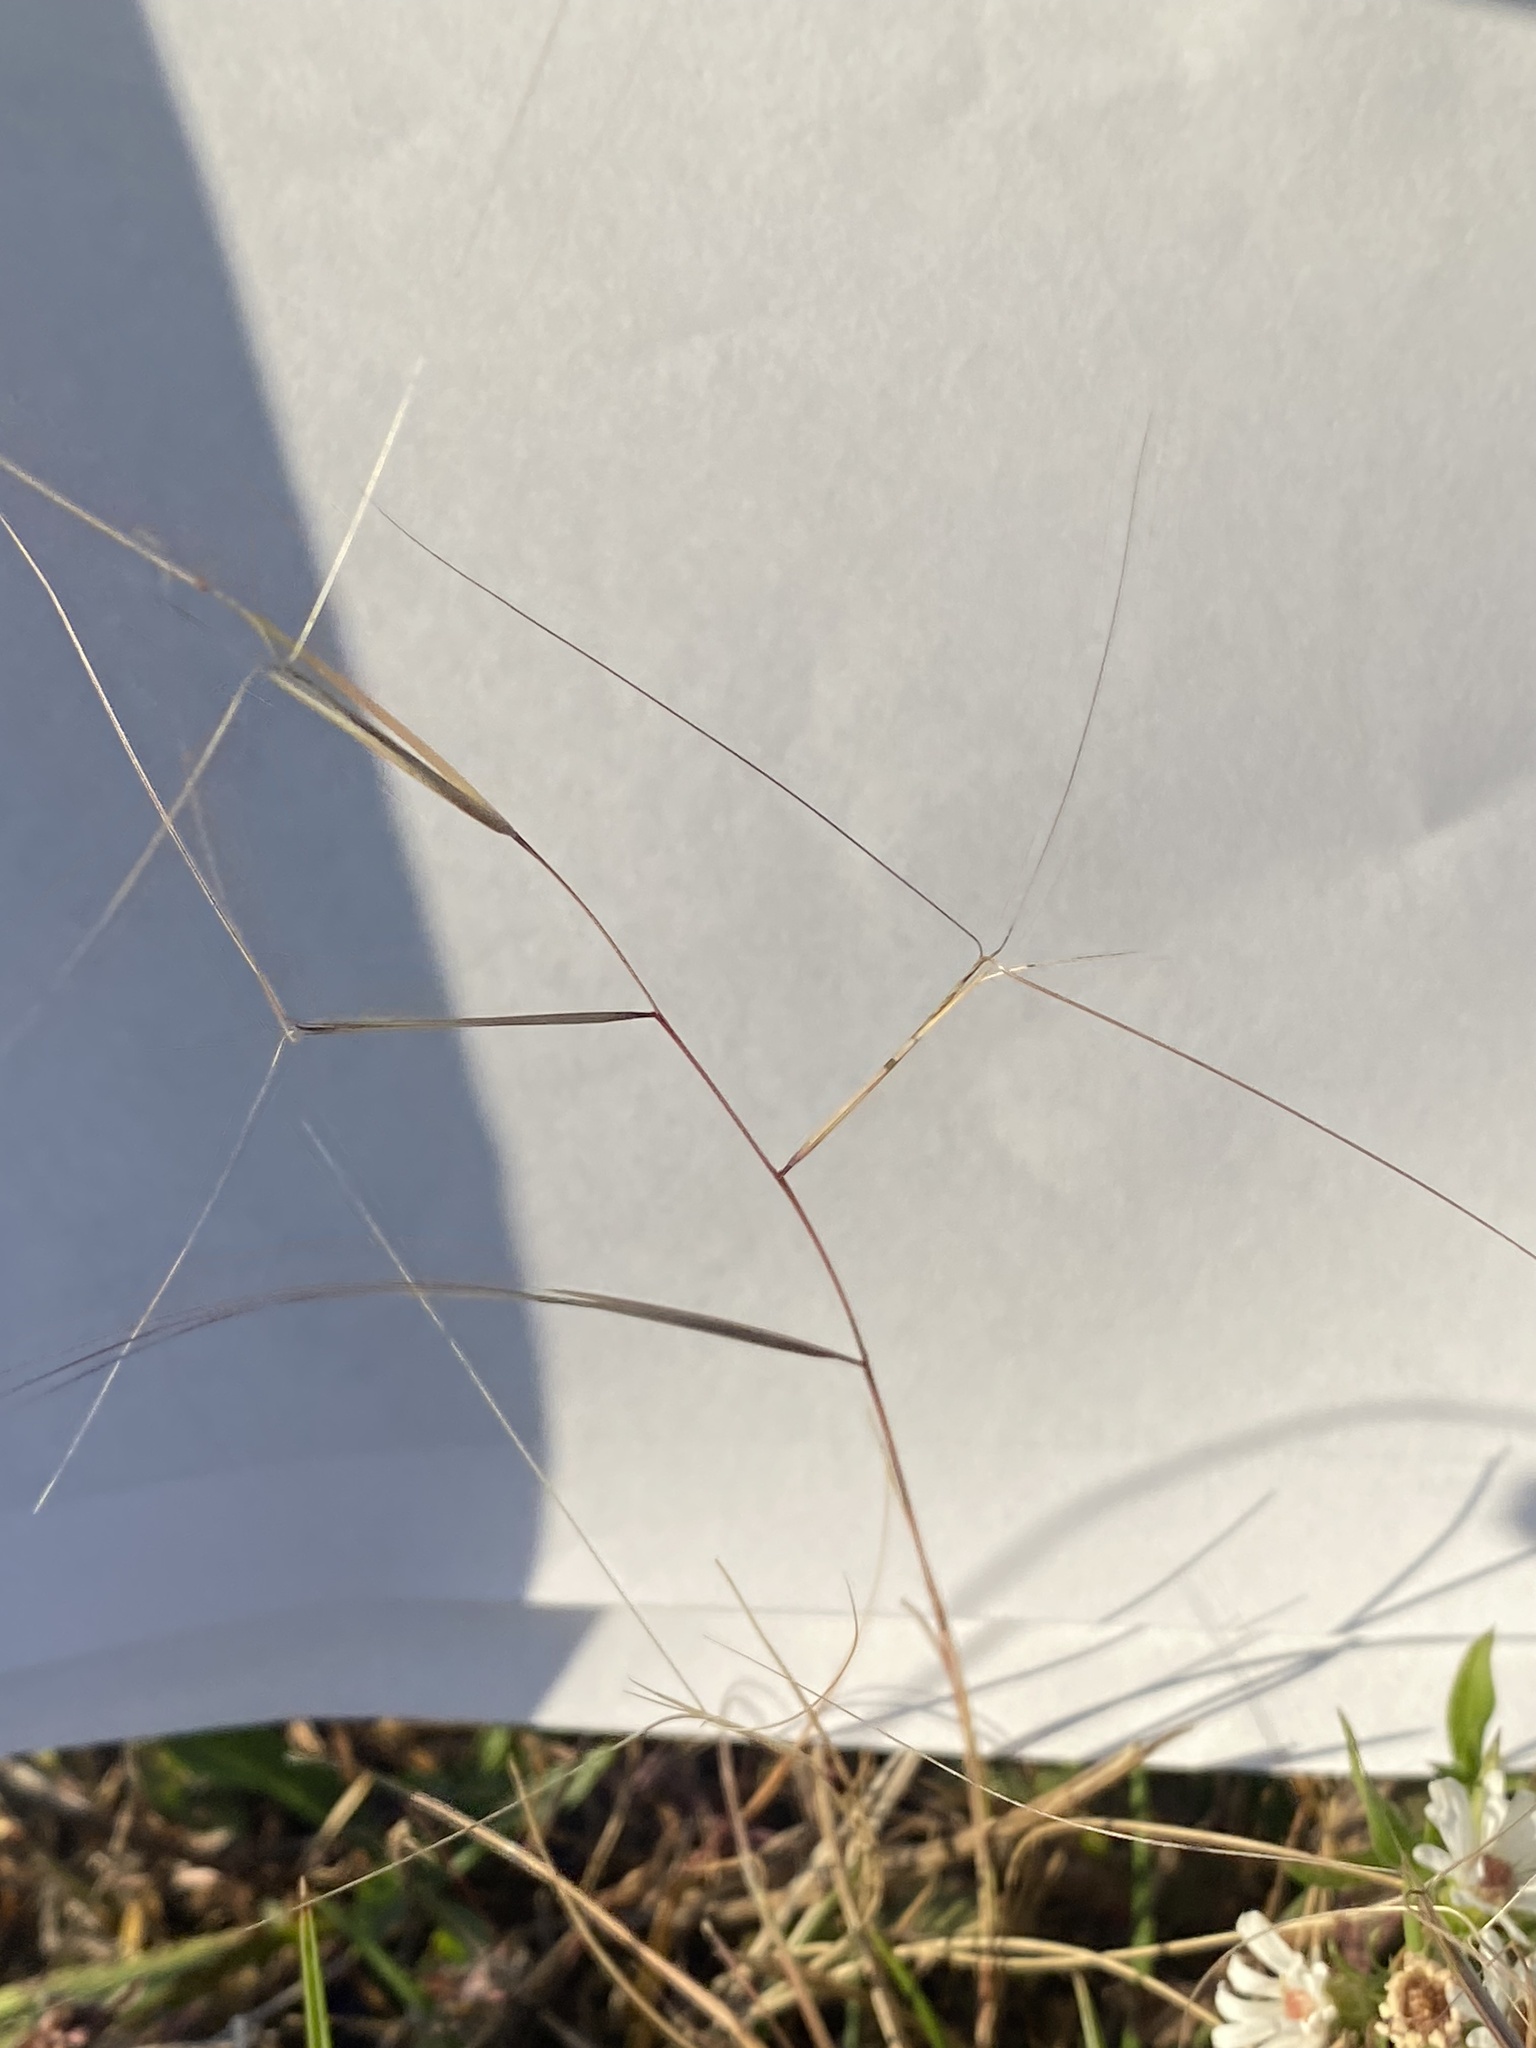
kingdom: Plantae
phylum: Tracheophyta
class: Liliopsida
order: Poales
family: Poaceae
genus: Aristida
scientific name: Aristida oligantha
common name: Few-flowered aristida
